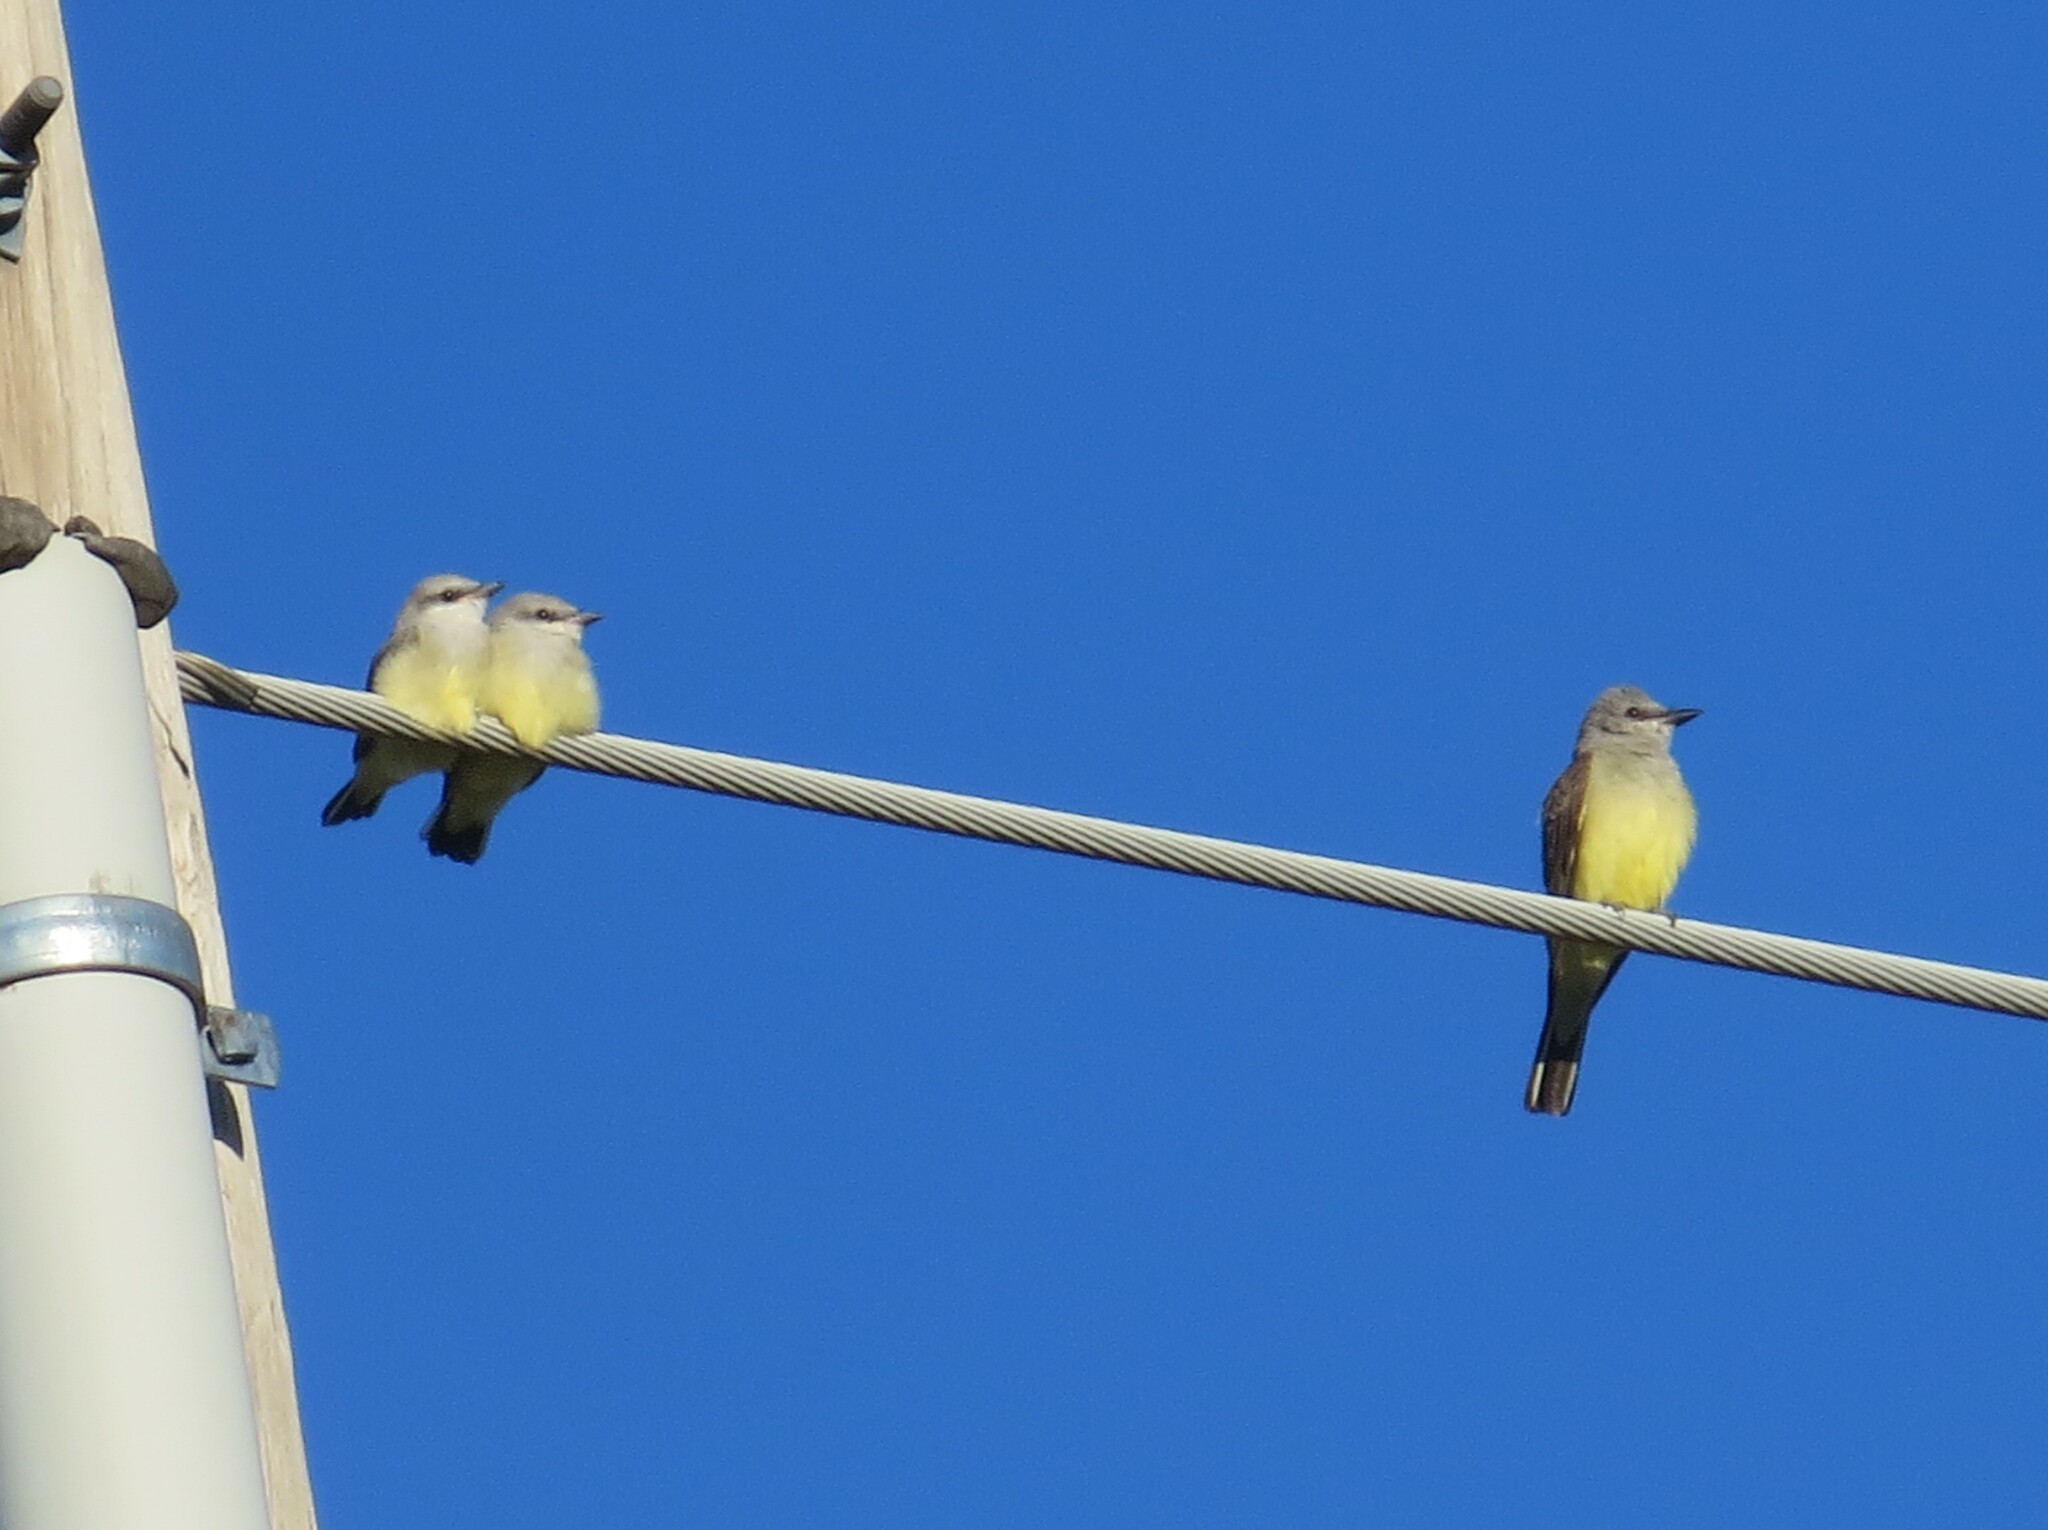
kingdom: Animalia
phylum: Chordata
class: Aves
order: Passeriformes
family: Tyrannidae
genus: Tyrannus
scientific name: Tyrannus verticalis
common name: Western kingbird
